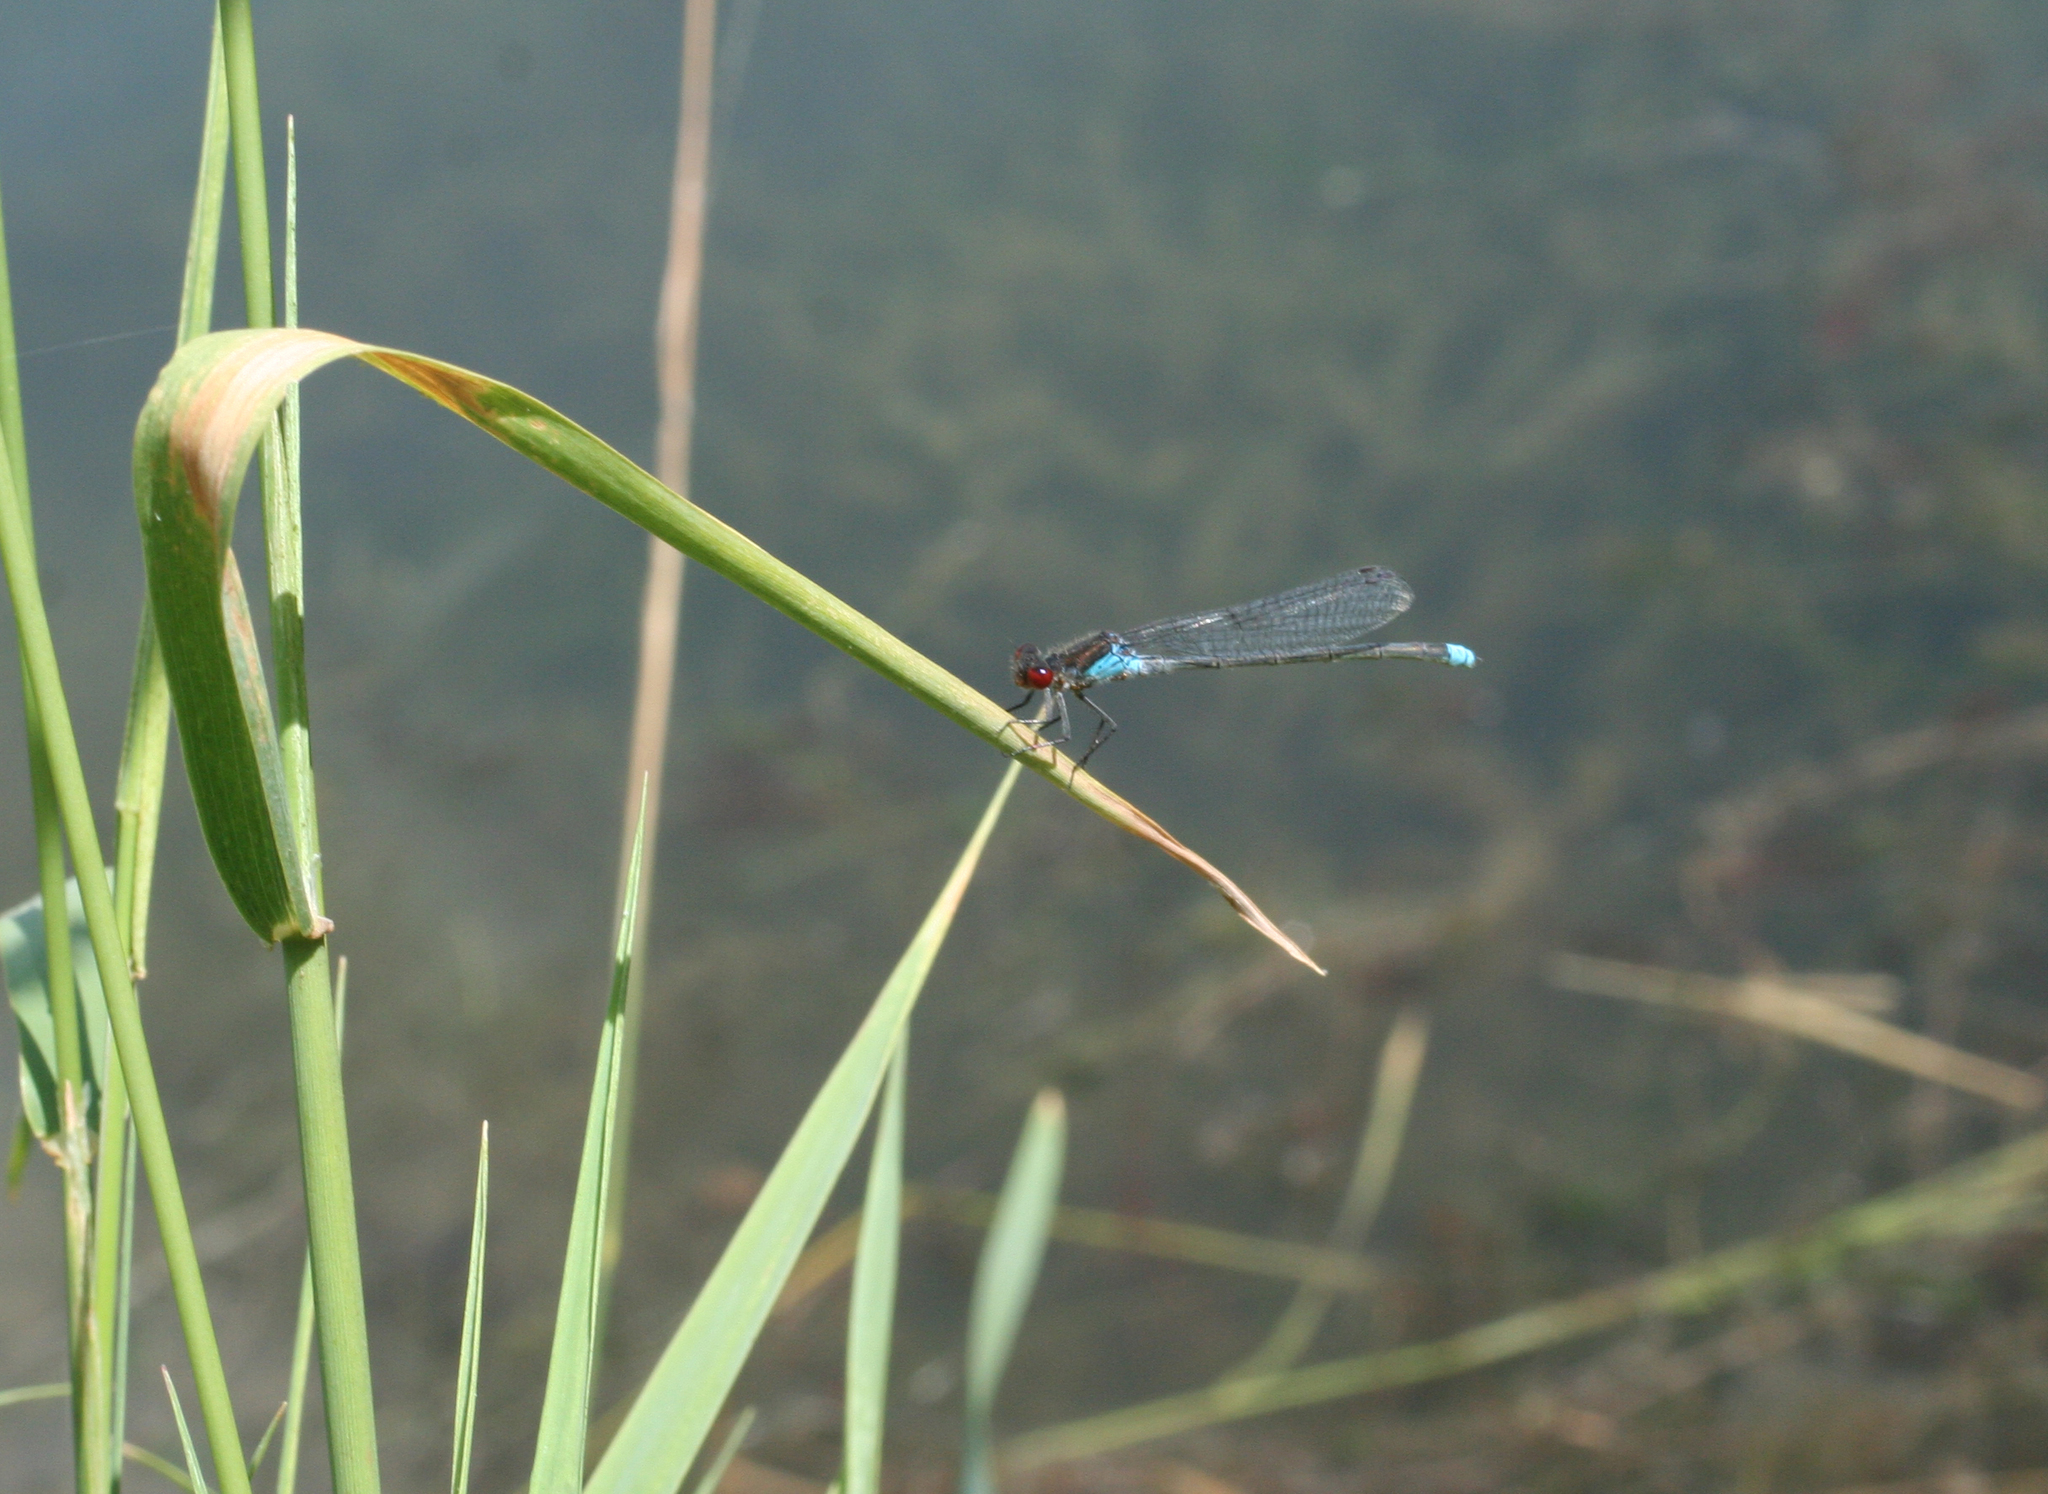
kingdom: Animalia
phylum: Arthropoda
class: Insecta
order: Odonata
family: Coenagrionidae
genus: Erythromma
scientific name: Erythromma najas
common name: Red-eyed damselfly
